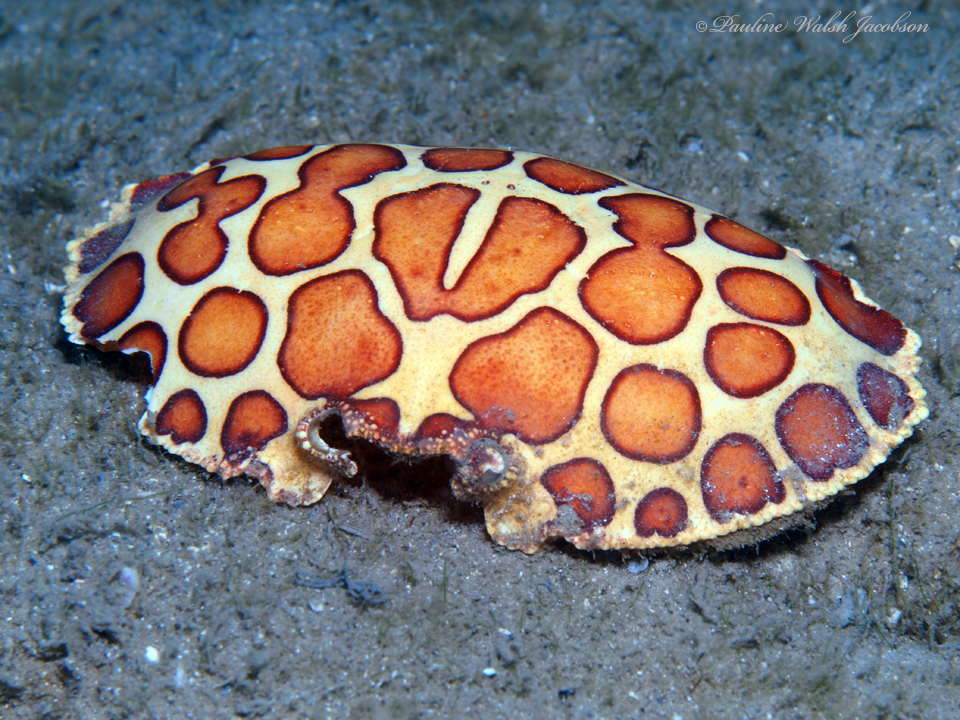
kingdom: Animalia
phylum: Arthropoda
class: Malacostraca
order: Decapoda
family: Aethridae
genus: Hepatus
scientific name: Hepatus epheliticus
